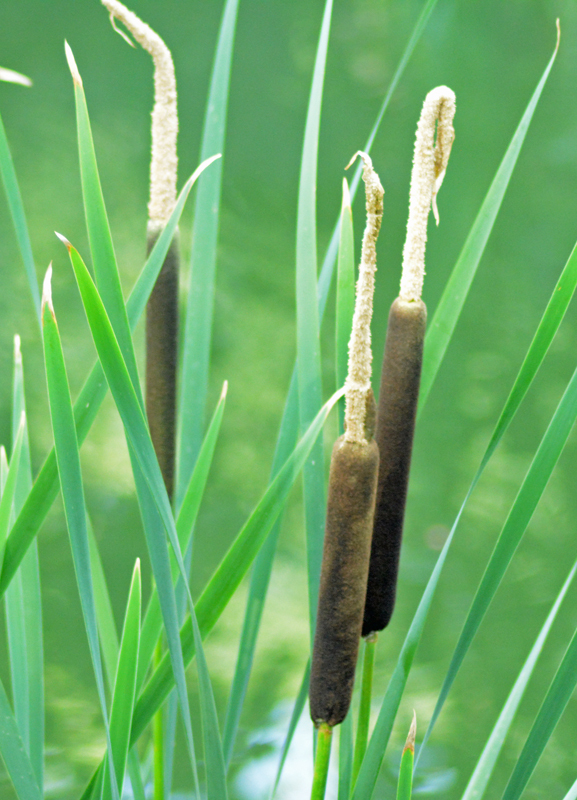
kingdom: Plantae
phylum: Tracheophyta
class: Liliopsida
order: Poales
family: Typhaceae
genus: Typha
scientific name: Typha latifolia
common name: Broadleaf cattail
